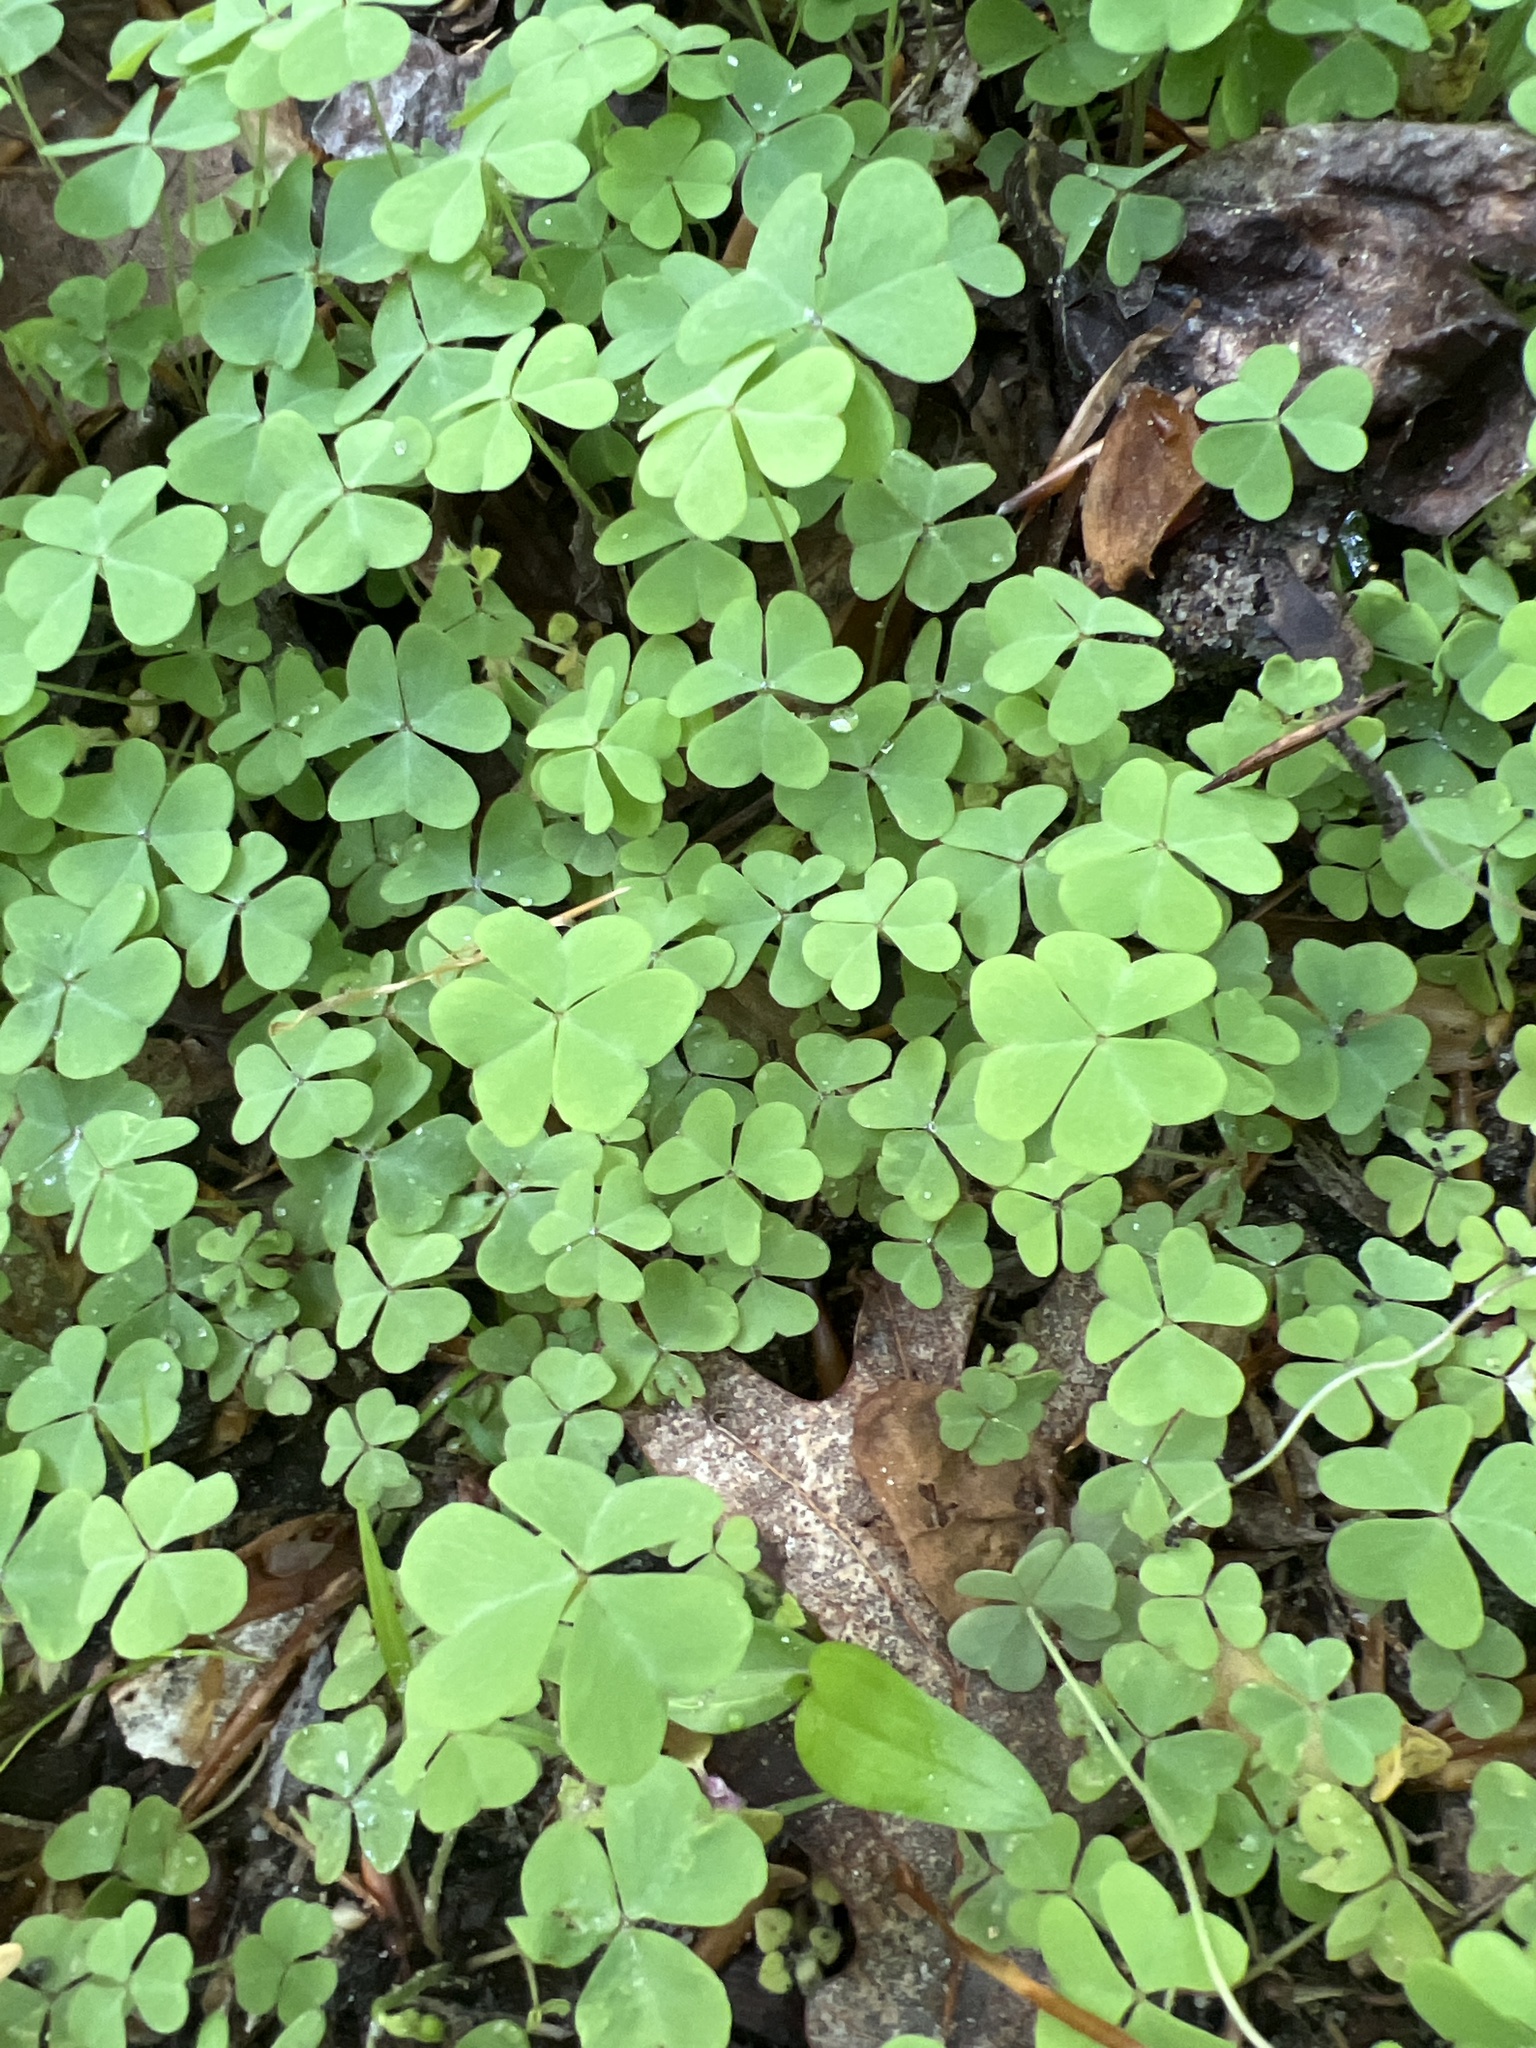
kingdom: Plantae
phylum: Tracheophyta
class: Magnoliopsida
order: Oxalidales
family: Oxalidaceae
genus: Oxalis
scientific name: Oxalis violacea
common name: Violet wood-sorrel
